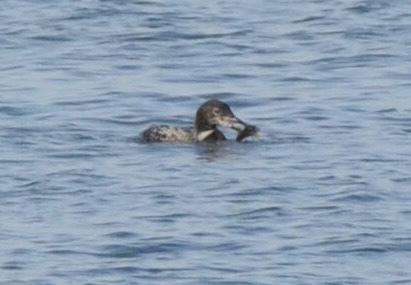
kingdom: Animalia
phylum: Chordata
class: Aves
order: Gaviiformes
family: Gaviidae
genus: Gavia
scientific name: Gavia immer
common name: Common loon
